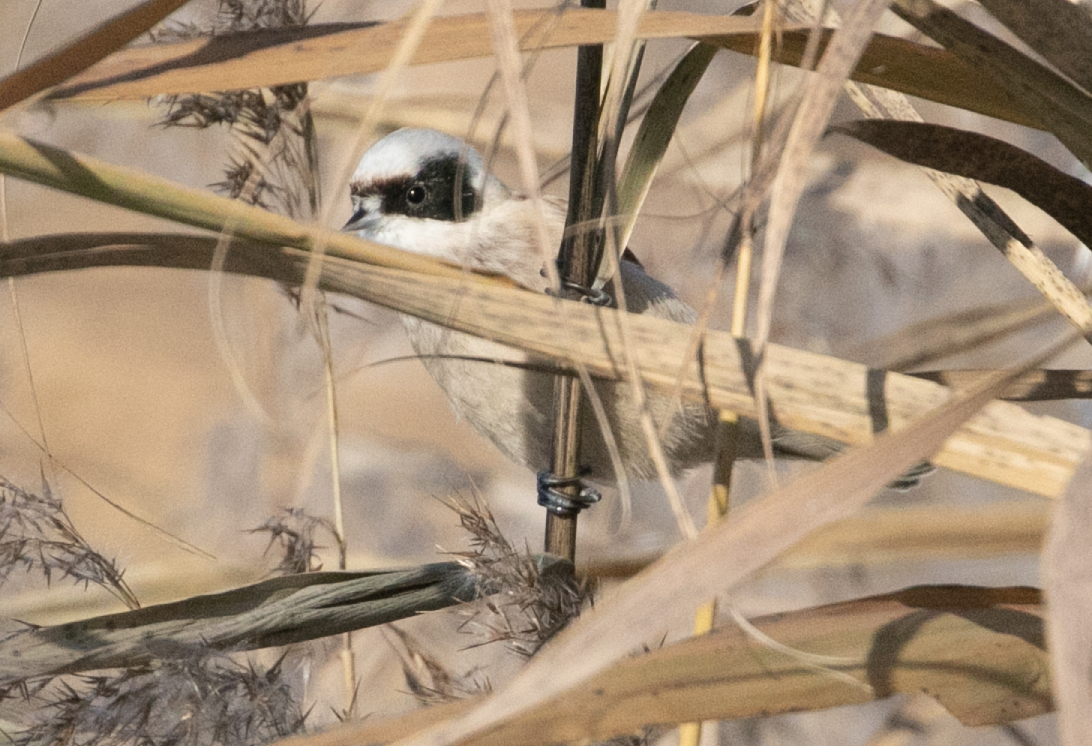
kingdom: Animalia
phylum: Chordata
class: Aves
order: Passeriformes
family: Remizidae
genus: Remiz
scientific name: Remiz pendulinus
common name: Eurasian penduline tit
